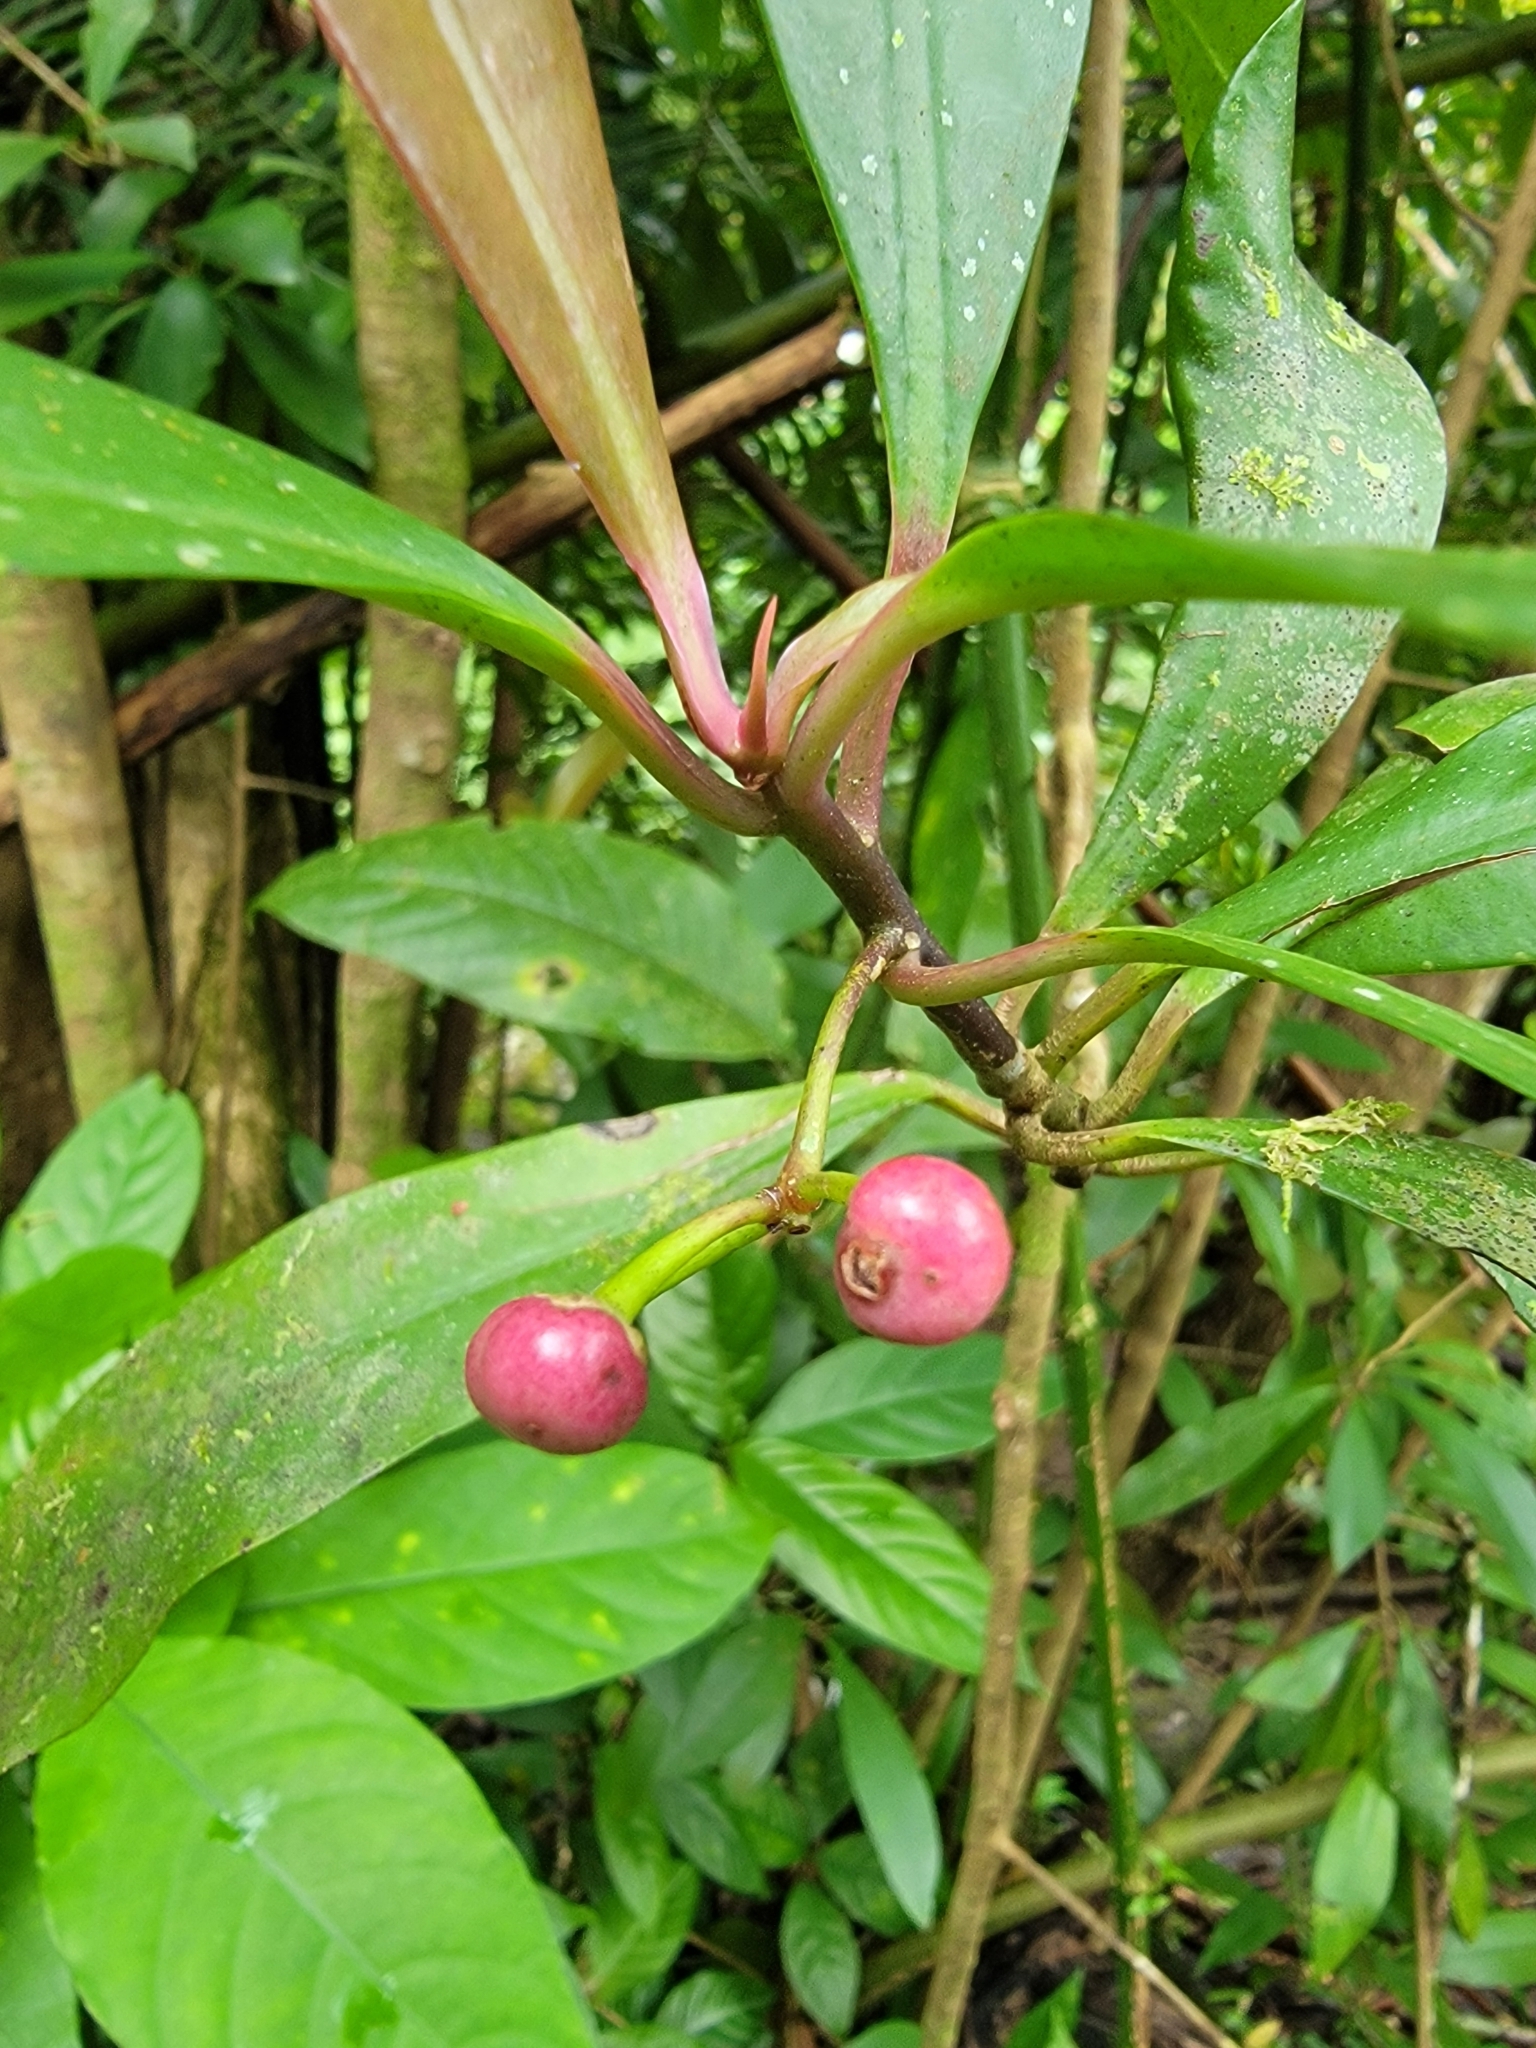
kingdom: Plantae
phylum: Tracheophyta
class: Magnoliopsida
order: Ericales
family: Primulaceae
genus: Ardisia
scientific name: Ardisia elliptica
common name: Shoebutton
